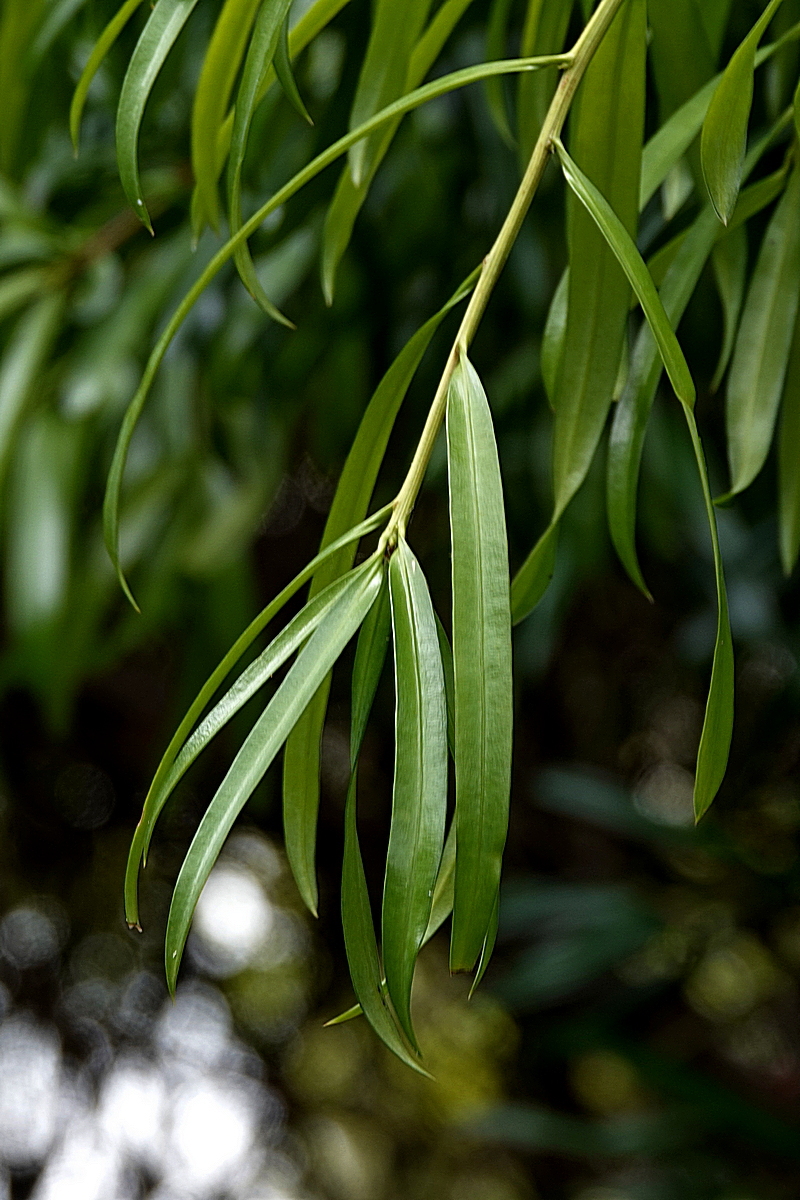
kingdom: Plantae
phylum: Tracheophyta
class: Pinopsida
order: Pinales
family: Podocarpaceae
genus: Podocarpus
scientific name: Podocarpus elatus
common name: Plum pine
